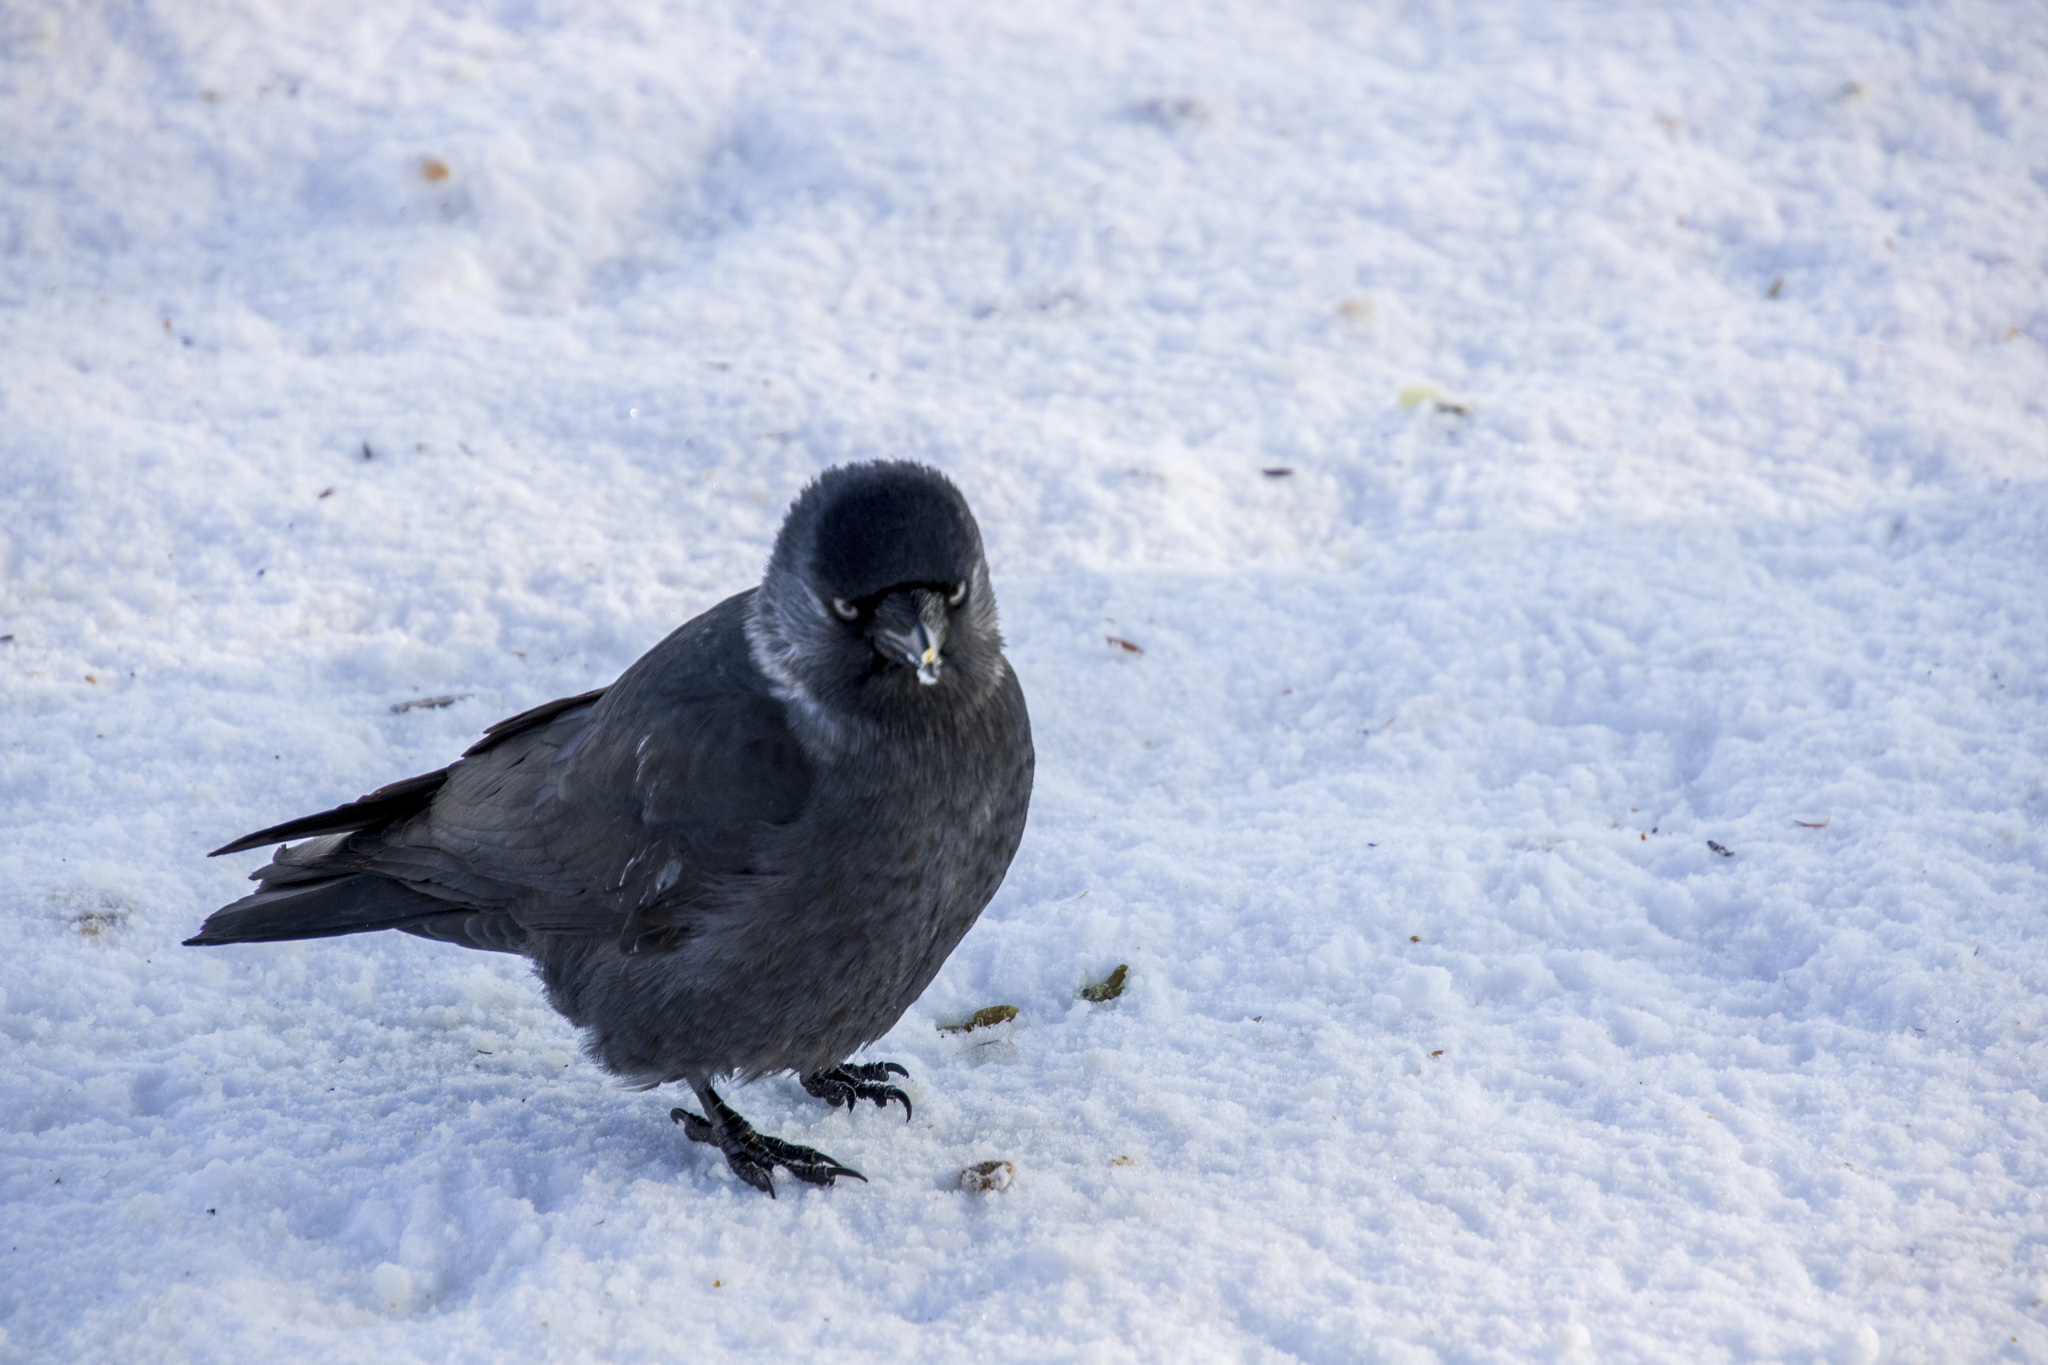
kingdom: Animalia
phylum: Chordata
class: Aves
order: Passeriformes
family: Corvidae
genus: Coloeus
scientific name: Coloeus monedula
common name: Western jackdaw
